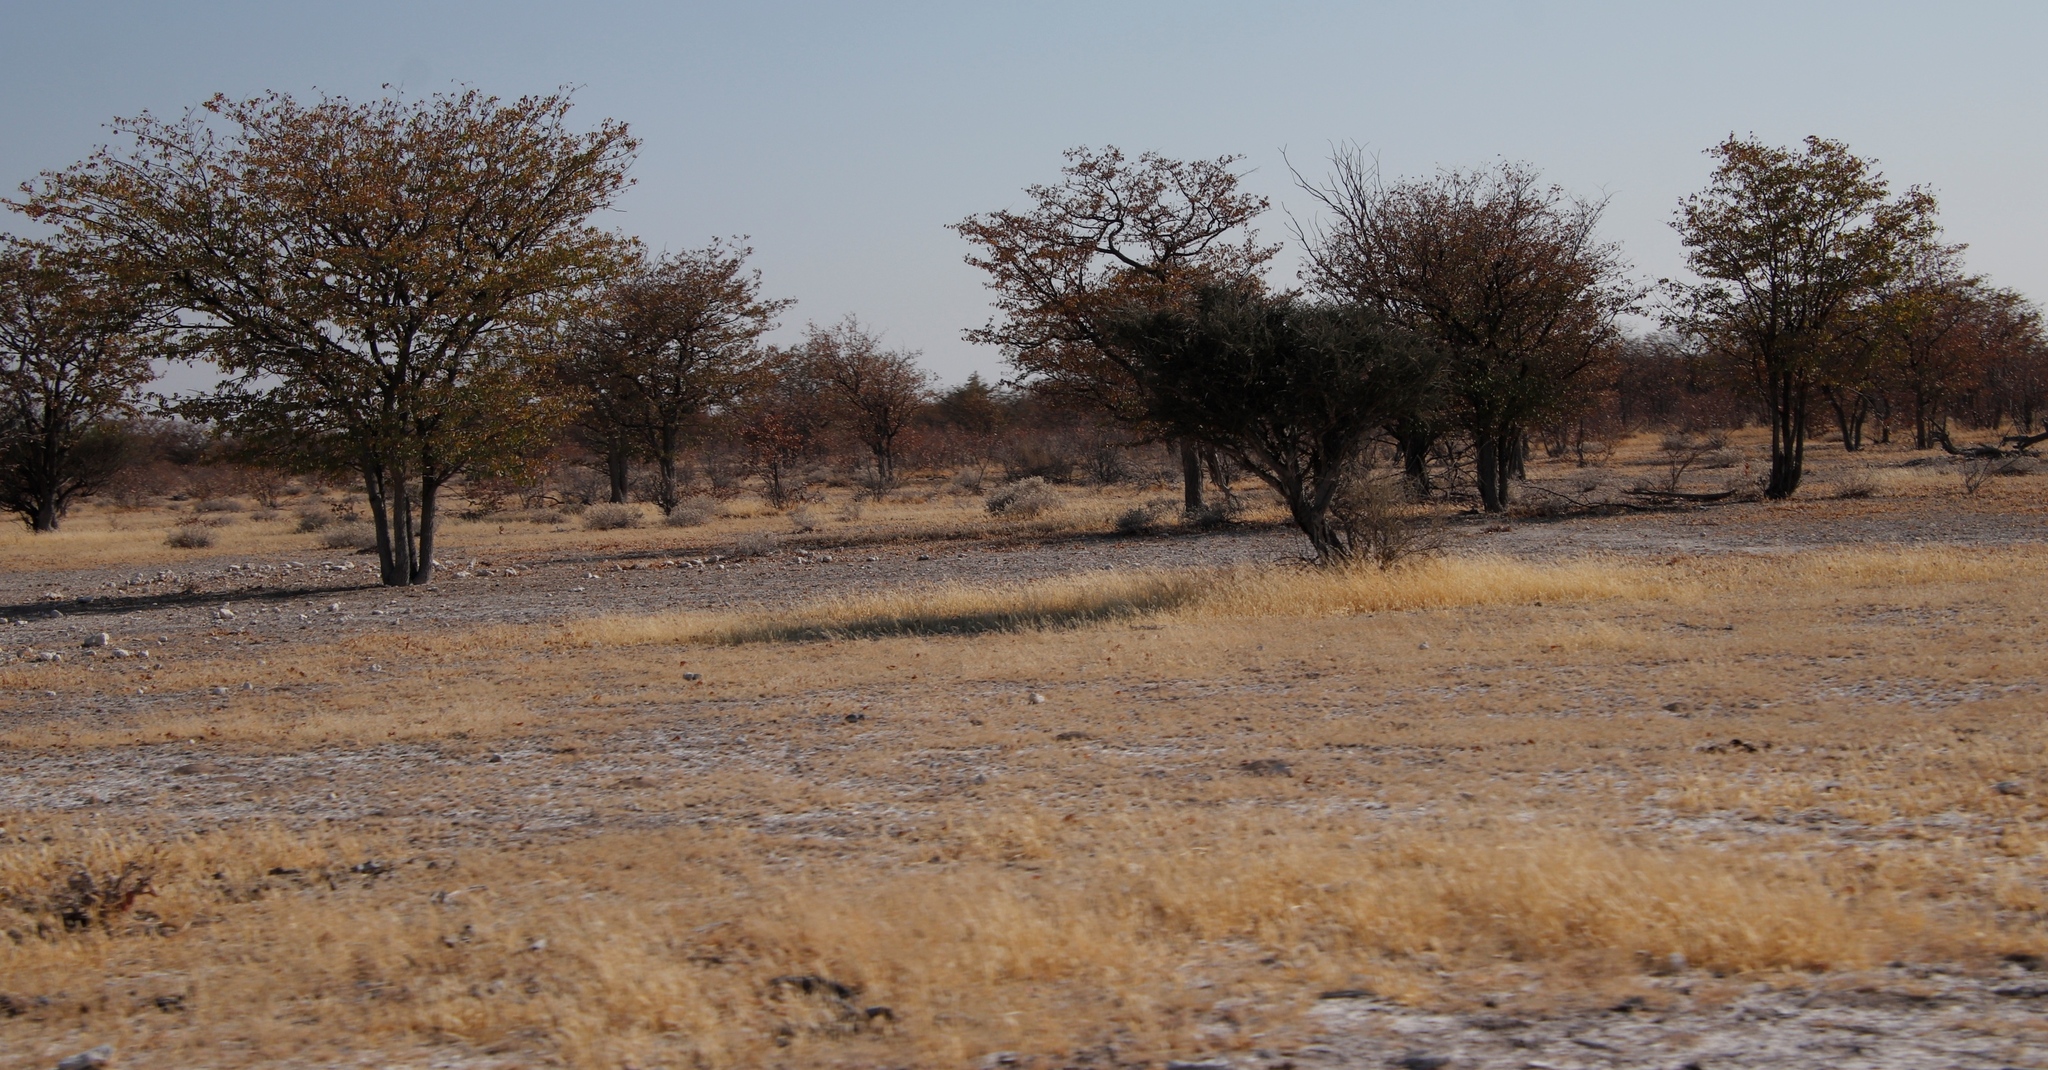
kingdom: Plantae
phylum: Tracheophyta
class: Magnoliopsida
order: Fabales
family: Fabaceae
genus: Colophospermum
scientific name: Colophospermum mopane
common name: Mopane
